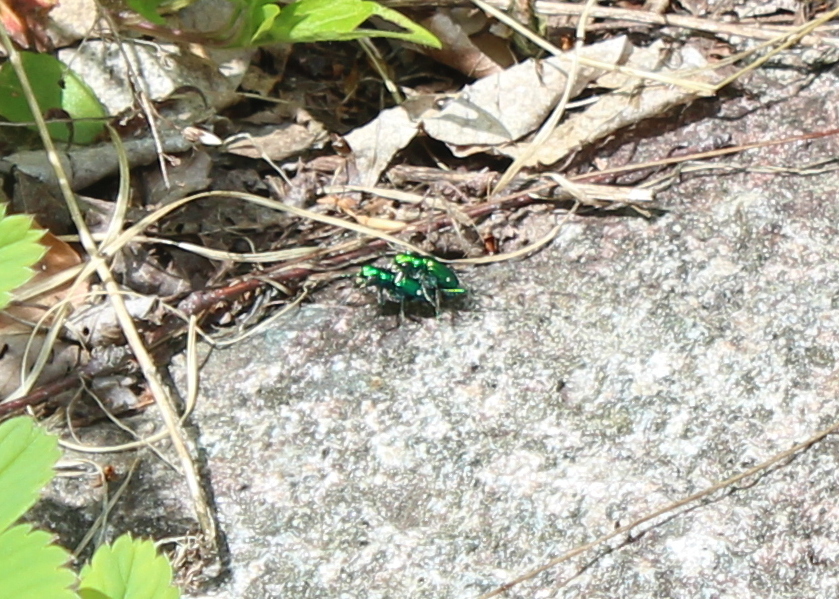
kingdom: Animalia
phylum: Arthropoda
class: Insecta
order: Coleoptera
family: Carabidae
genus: Cicindela
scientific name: Cicindela sexguttata
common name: Six-spotted tiger beetle
